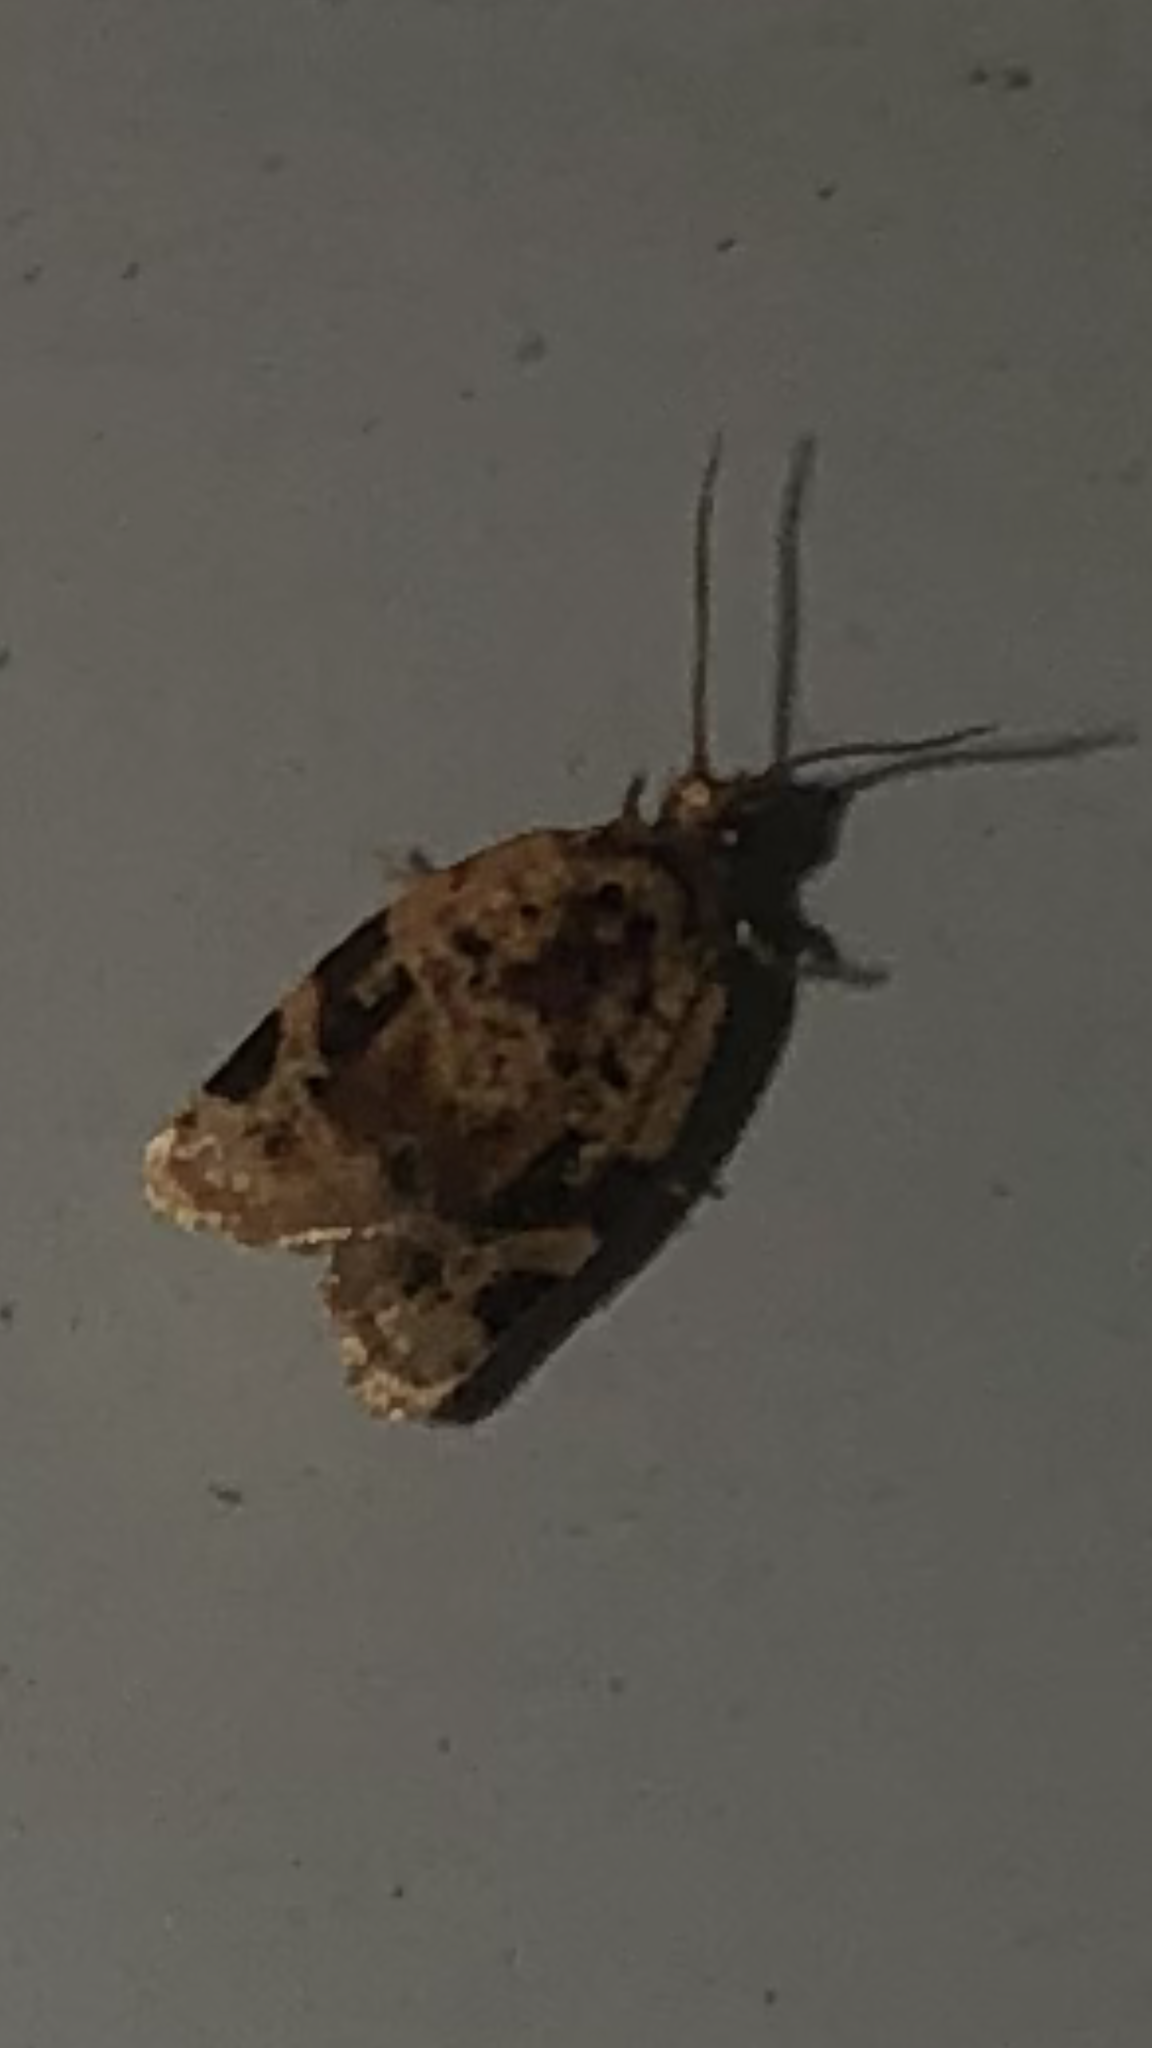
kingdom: Animalia
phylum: Arthropoda
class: Insecta
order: Lepidoptera
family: Tortricidae
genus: Argyrotaenia
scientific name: Argyrotaenia velutinana
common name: Red-banded leafroller moth
